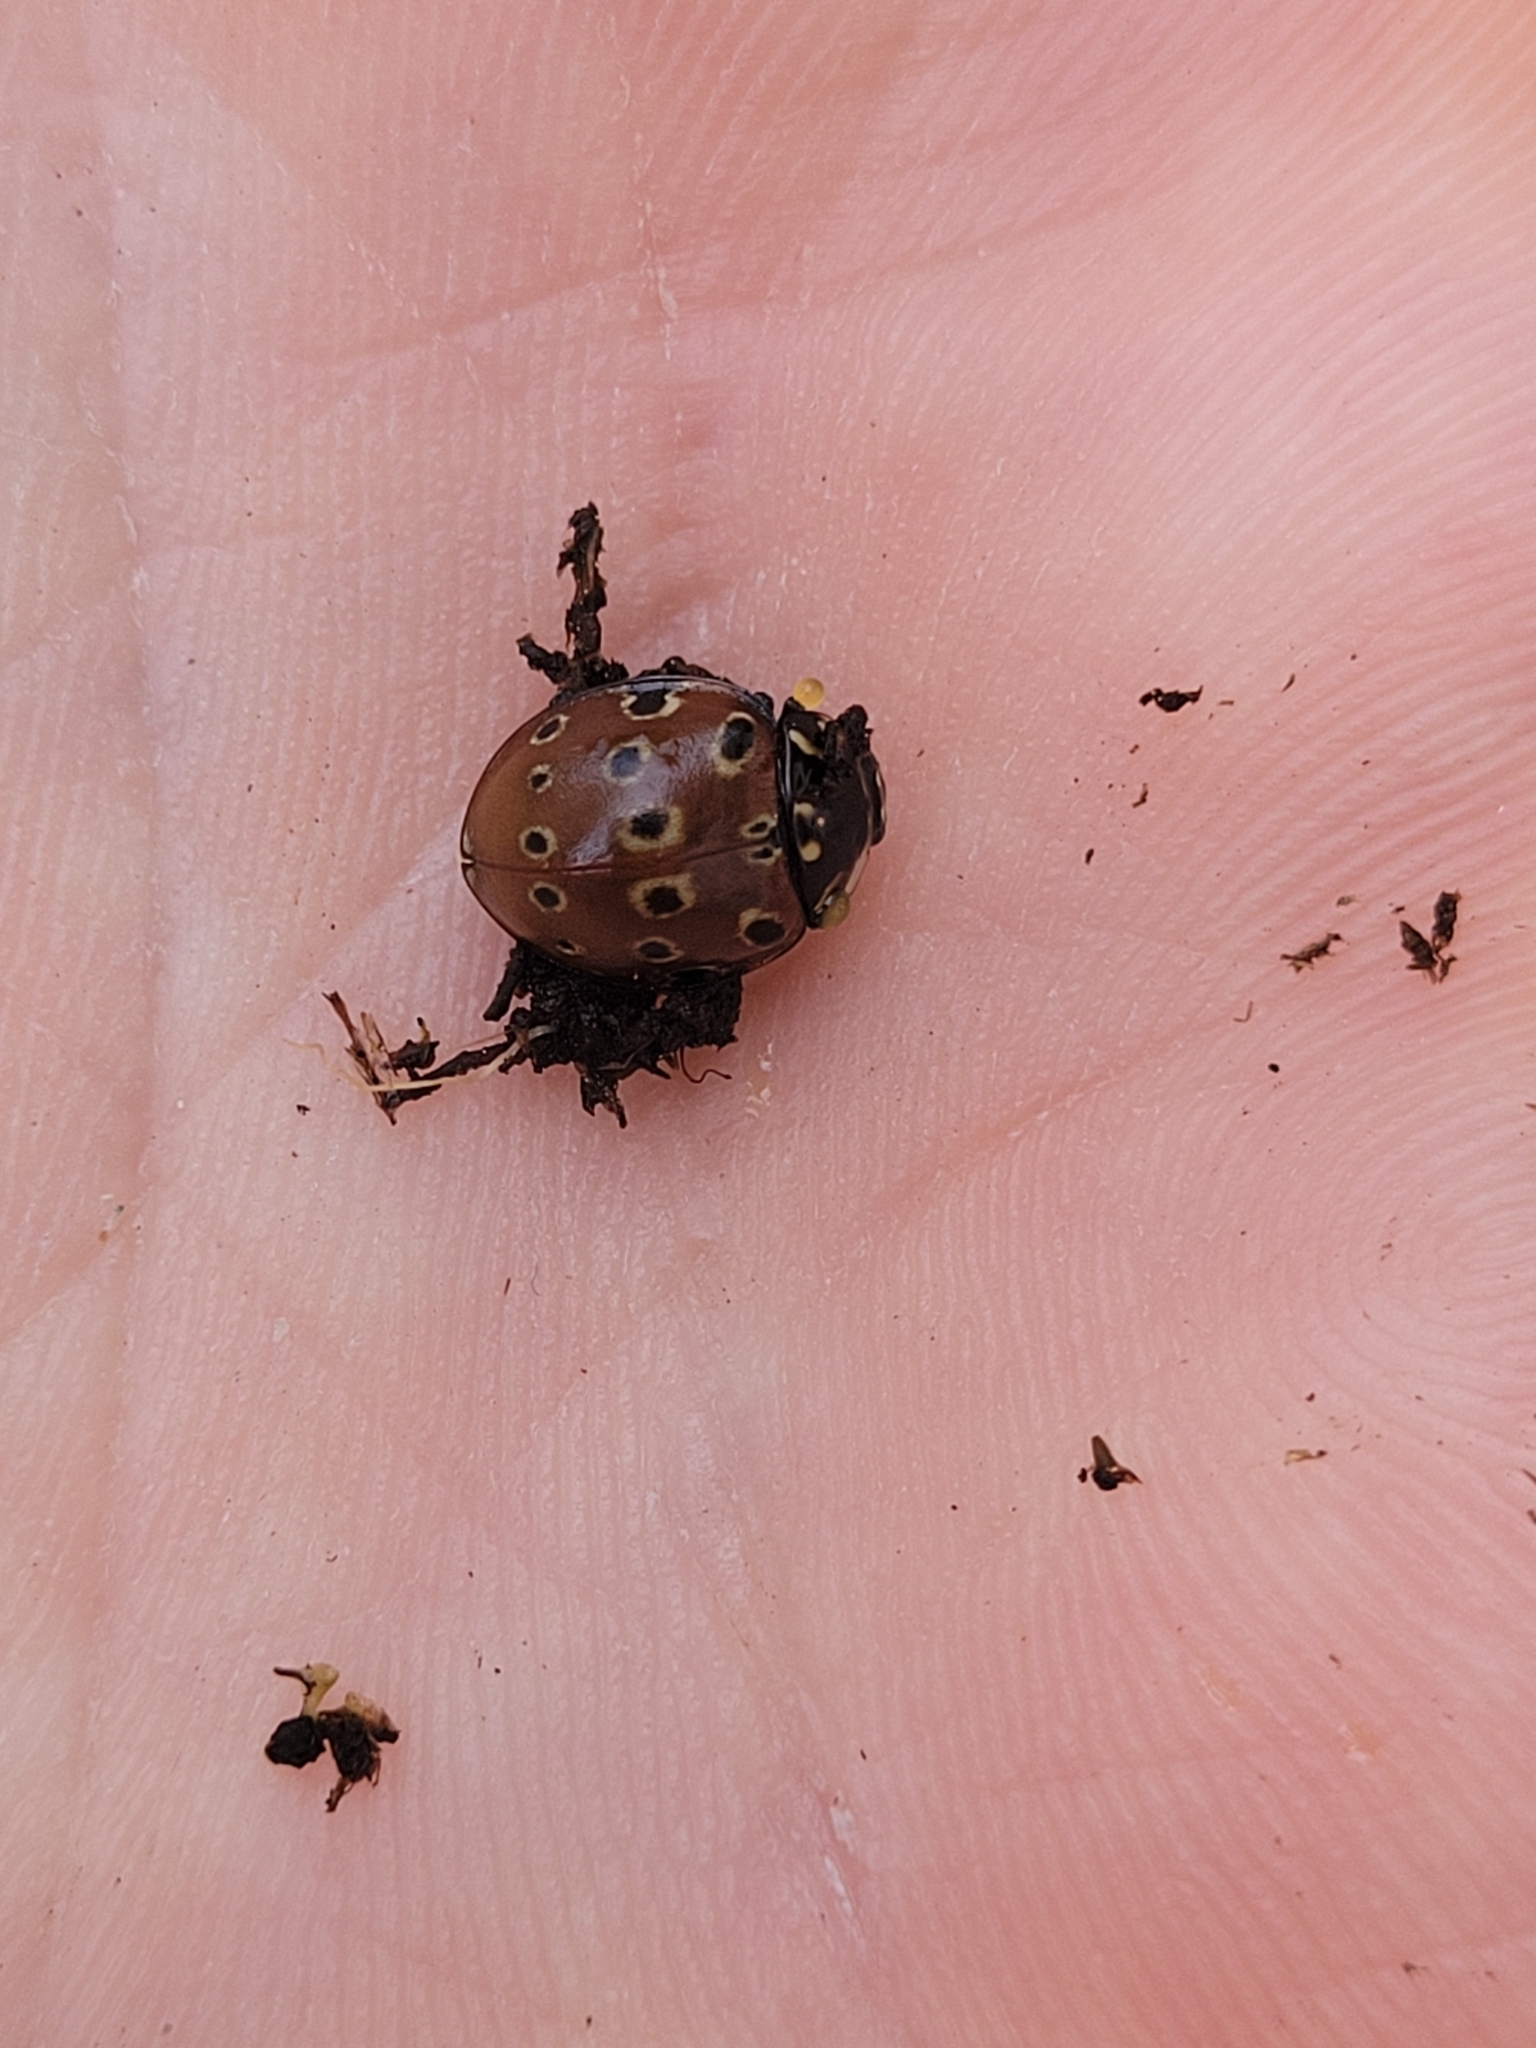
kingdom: Animalia
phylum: Arthropoda
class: Insecta
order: Coleoptera
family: Coccinellidae
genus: Anatis
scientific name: Anatis mali
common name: Eye-spotted lady beetle
